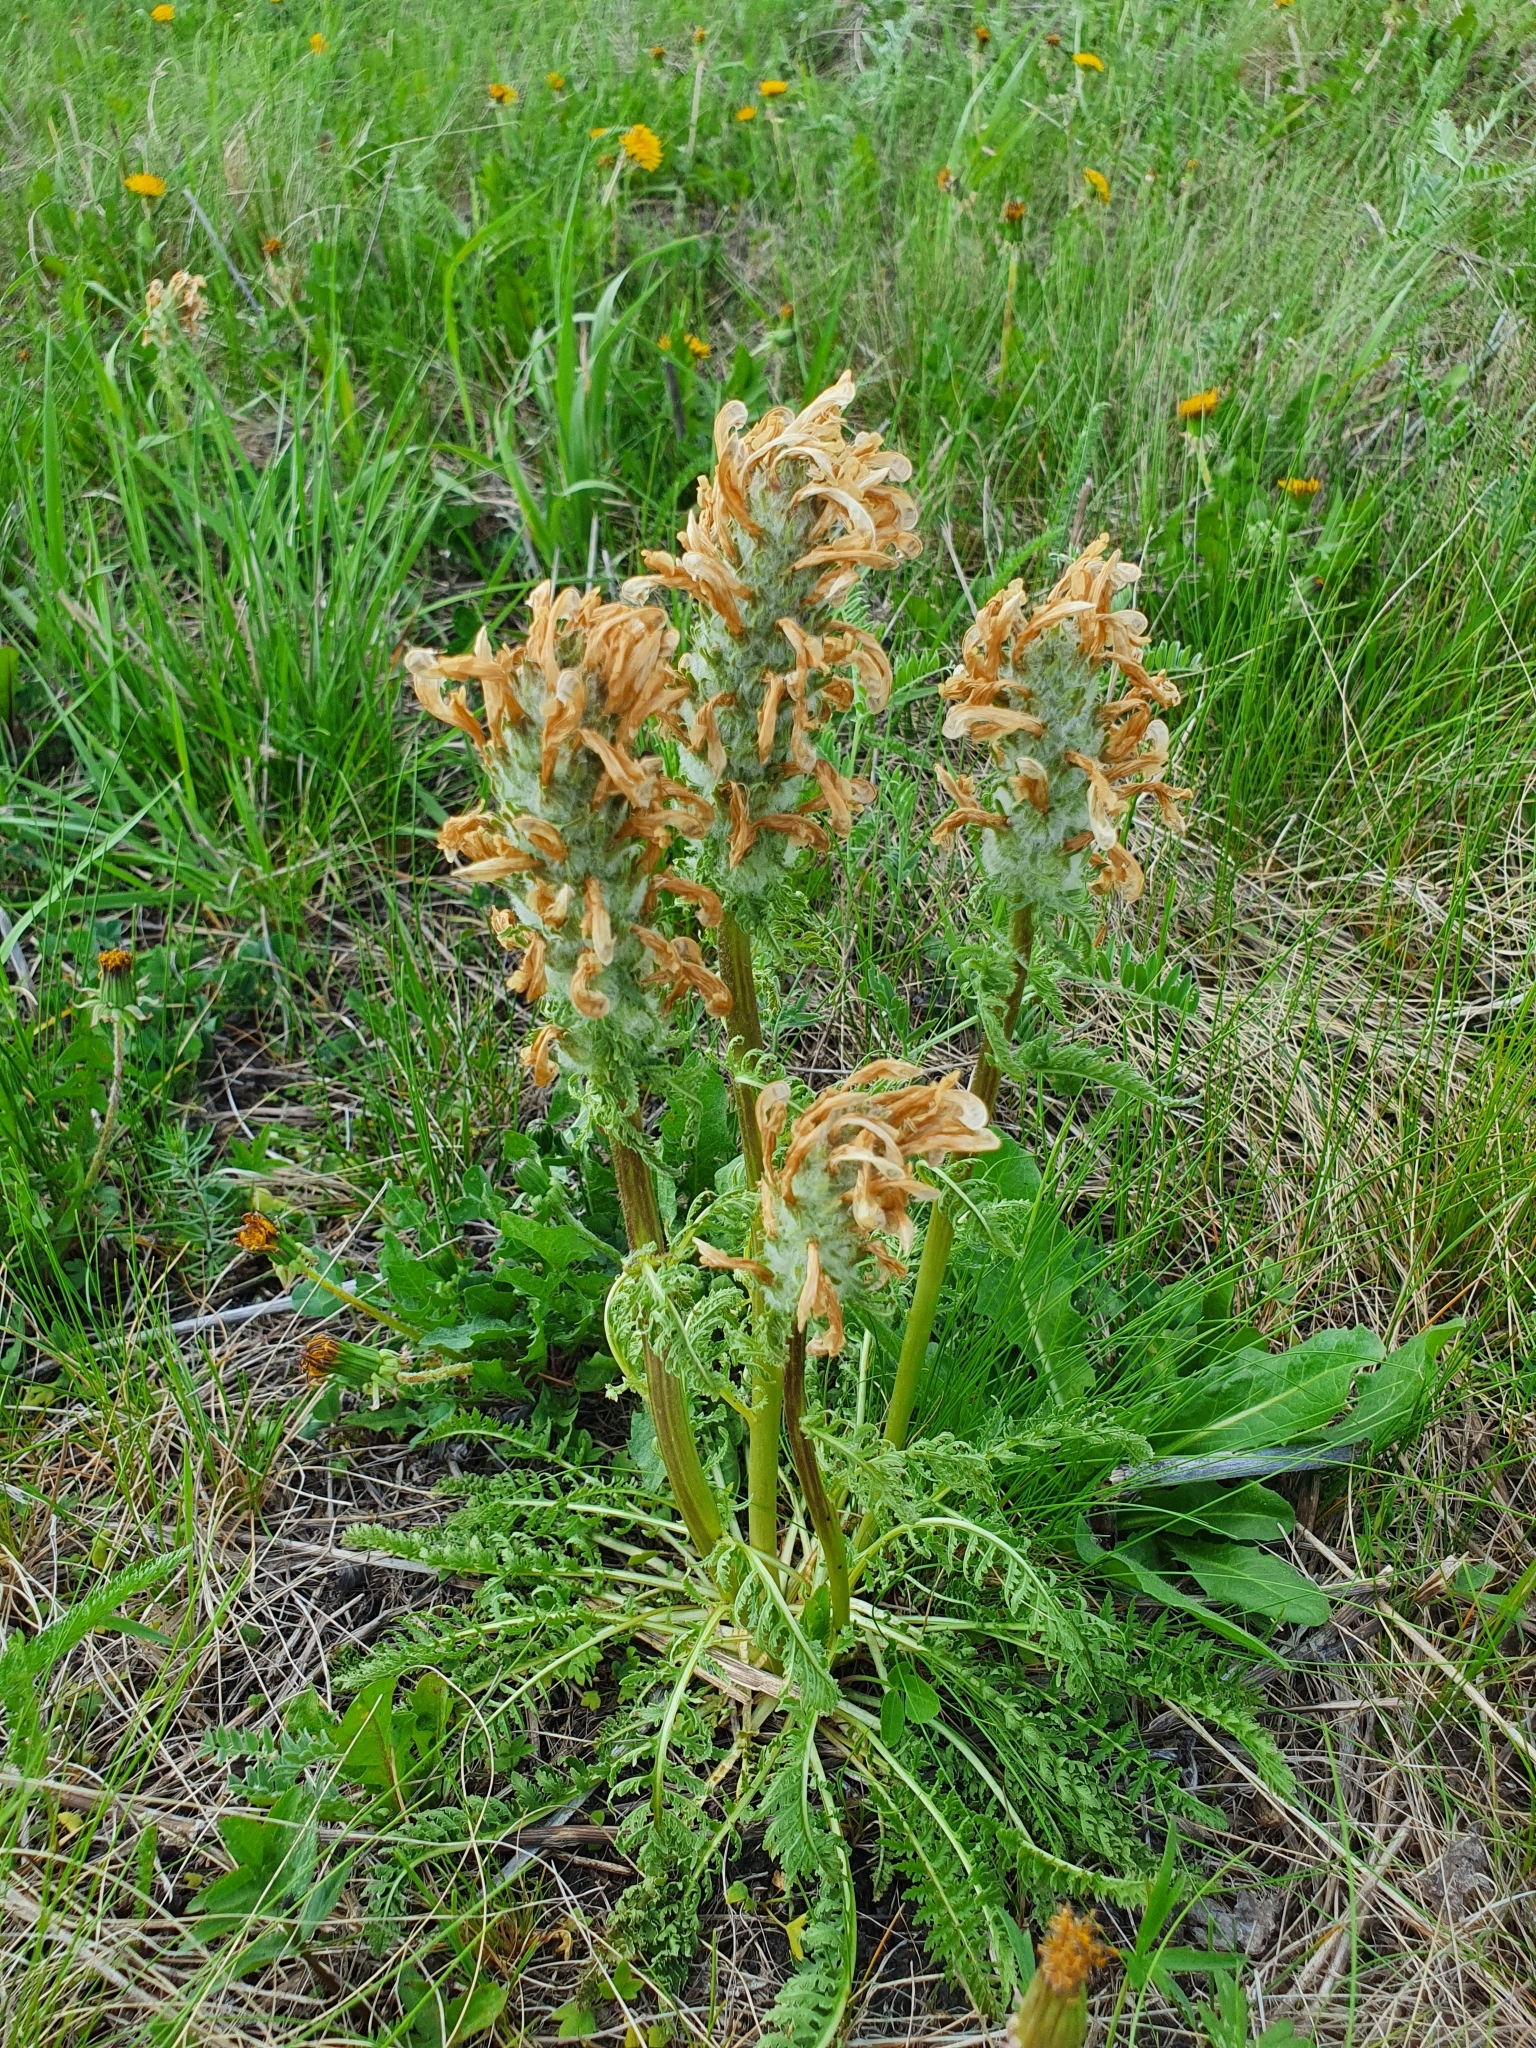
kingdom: Plantae
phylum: Tracheophyta
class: Magnoliopsida
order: Lamiales
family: Orobanchaceae
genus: Pedicularis
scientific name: Pedicularis dasystachys
